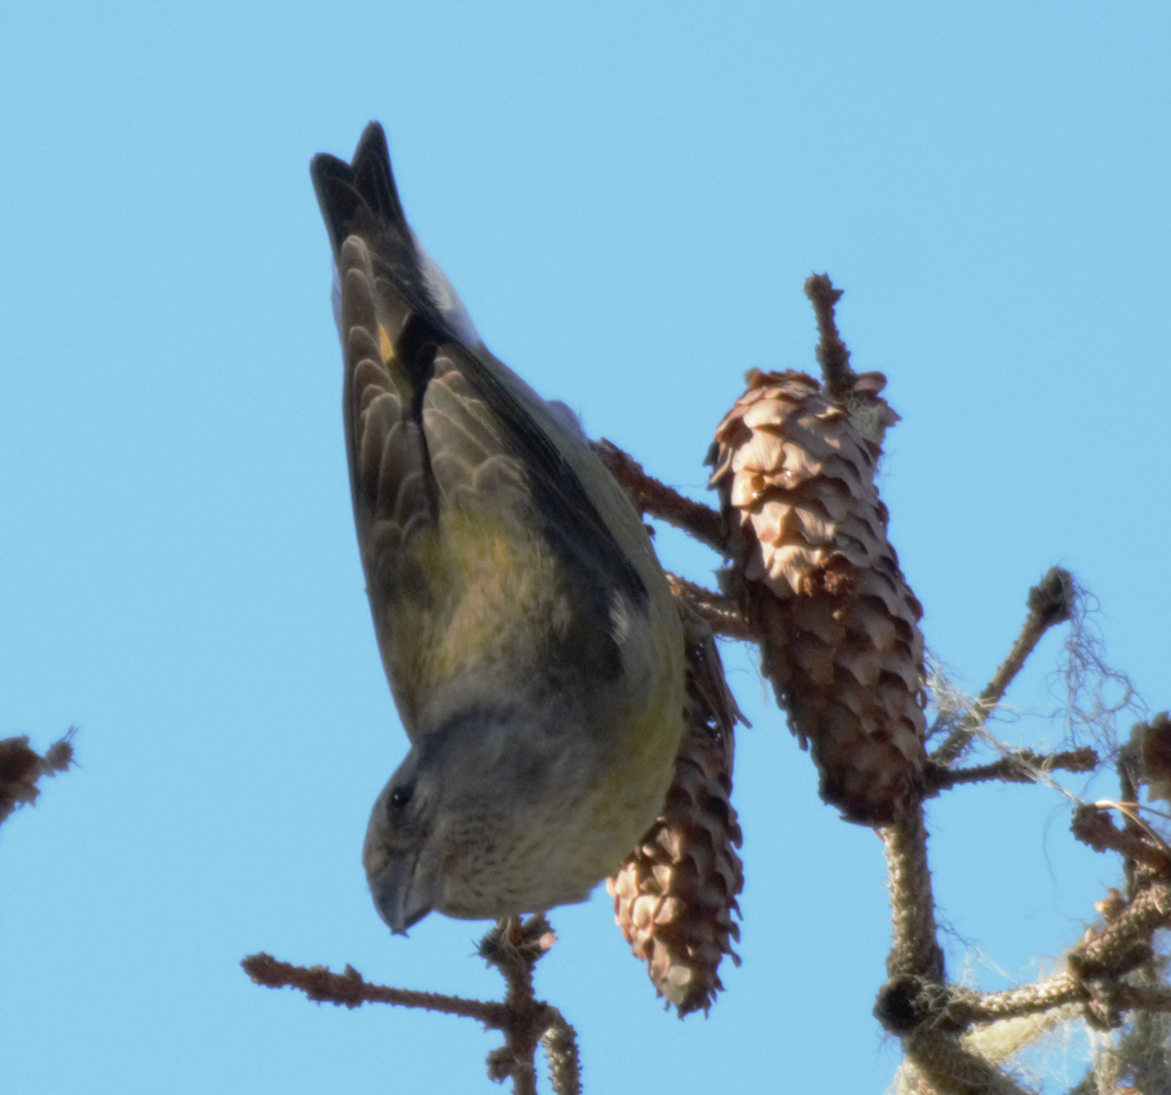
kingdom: Animalia
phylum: Chordata
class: Aves
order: Passeriformes
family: Fringillidae
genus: Loxia
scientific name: Loxia curvirostra
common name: Red crossbill
